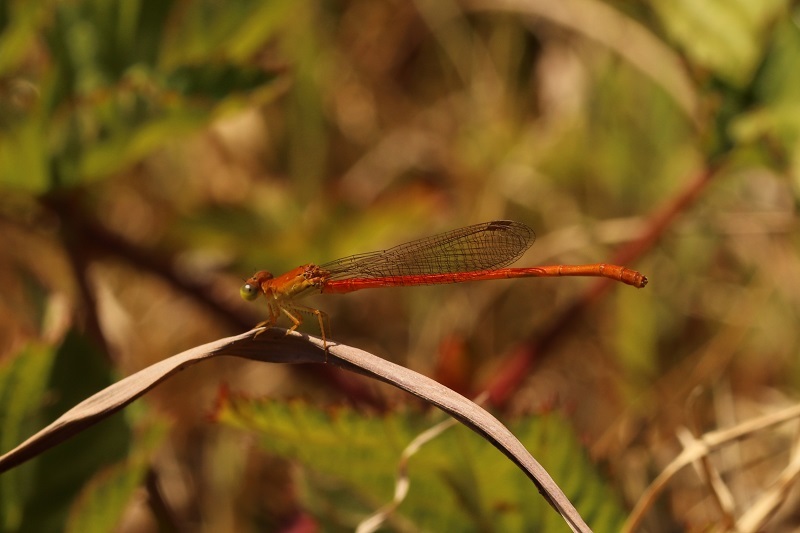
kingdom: Animalia
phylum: Arthropoda
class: Insecta
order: Odonata
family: Coenagrionidae
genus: Ceriagrion
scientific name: Ceriagrion glabrum
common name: Common pond damsel
